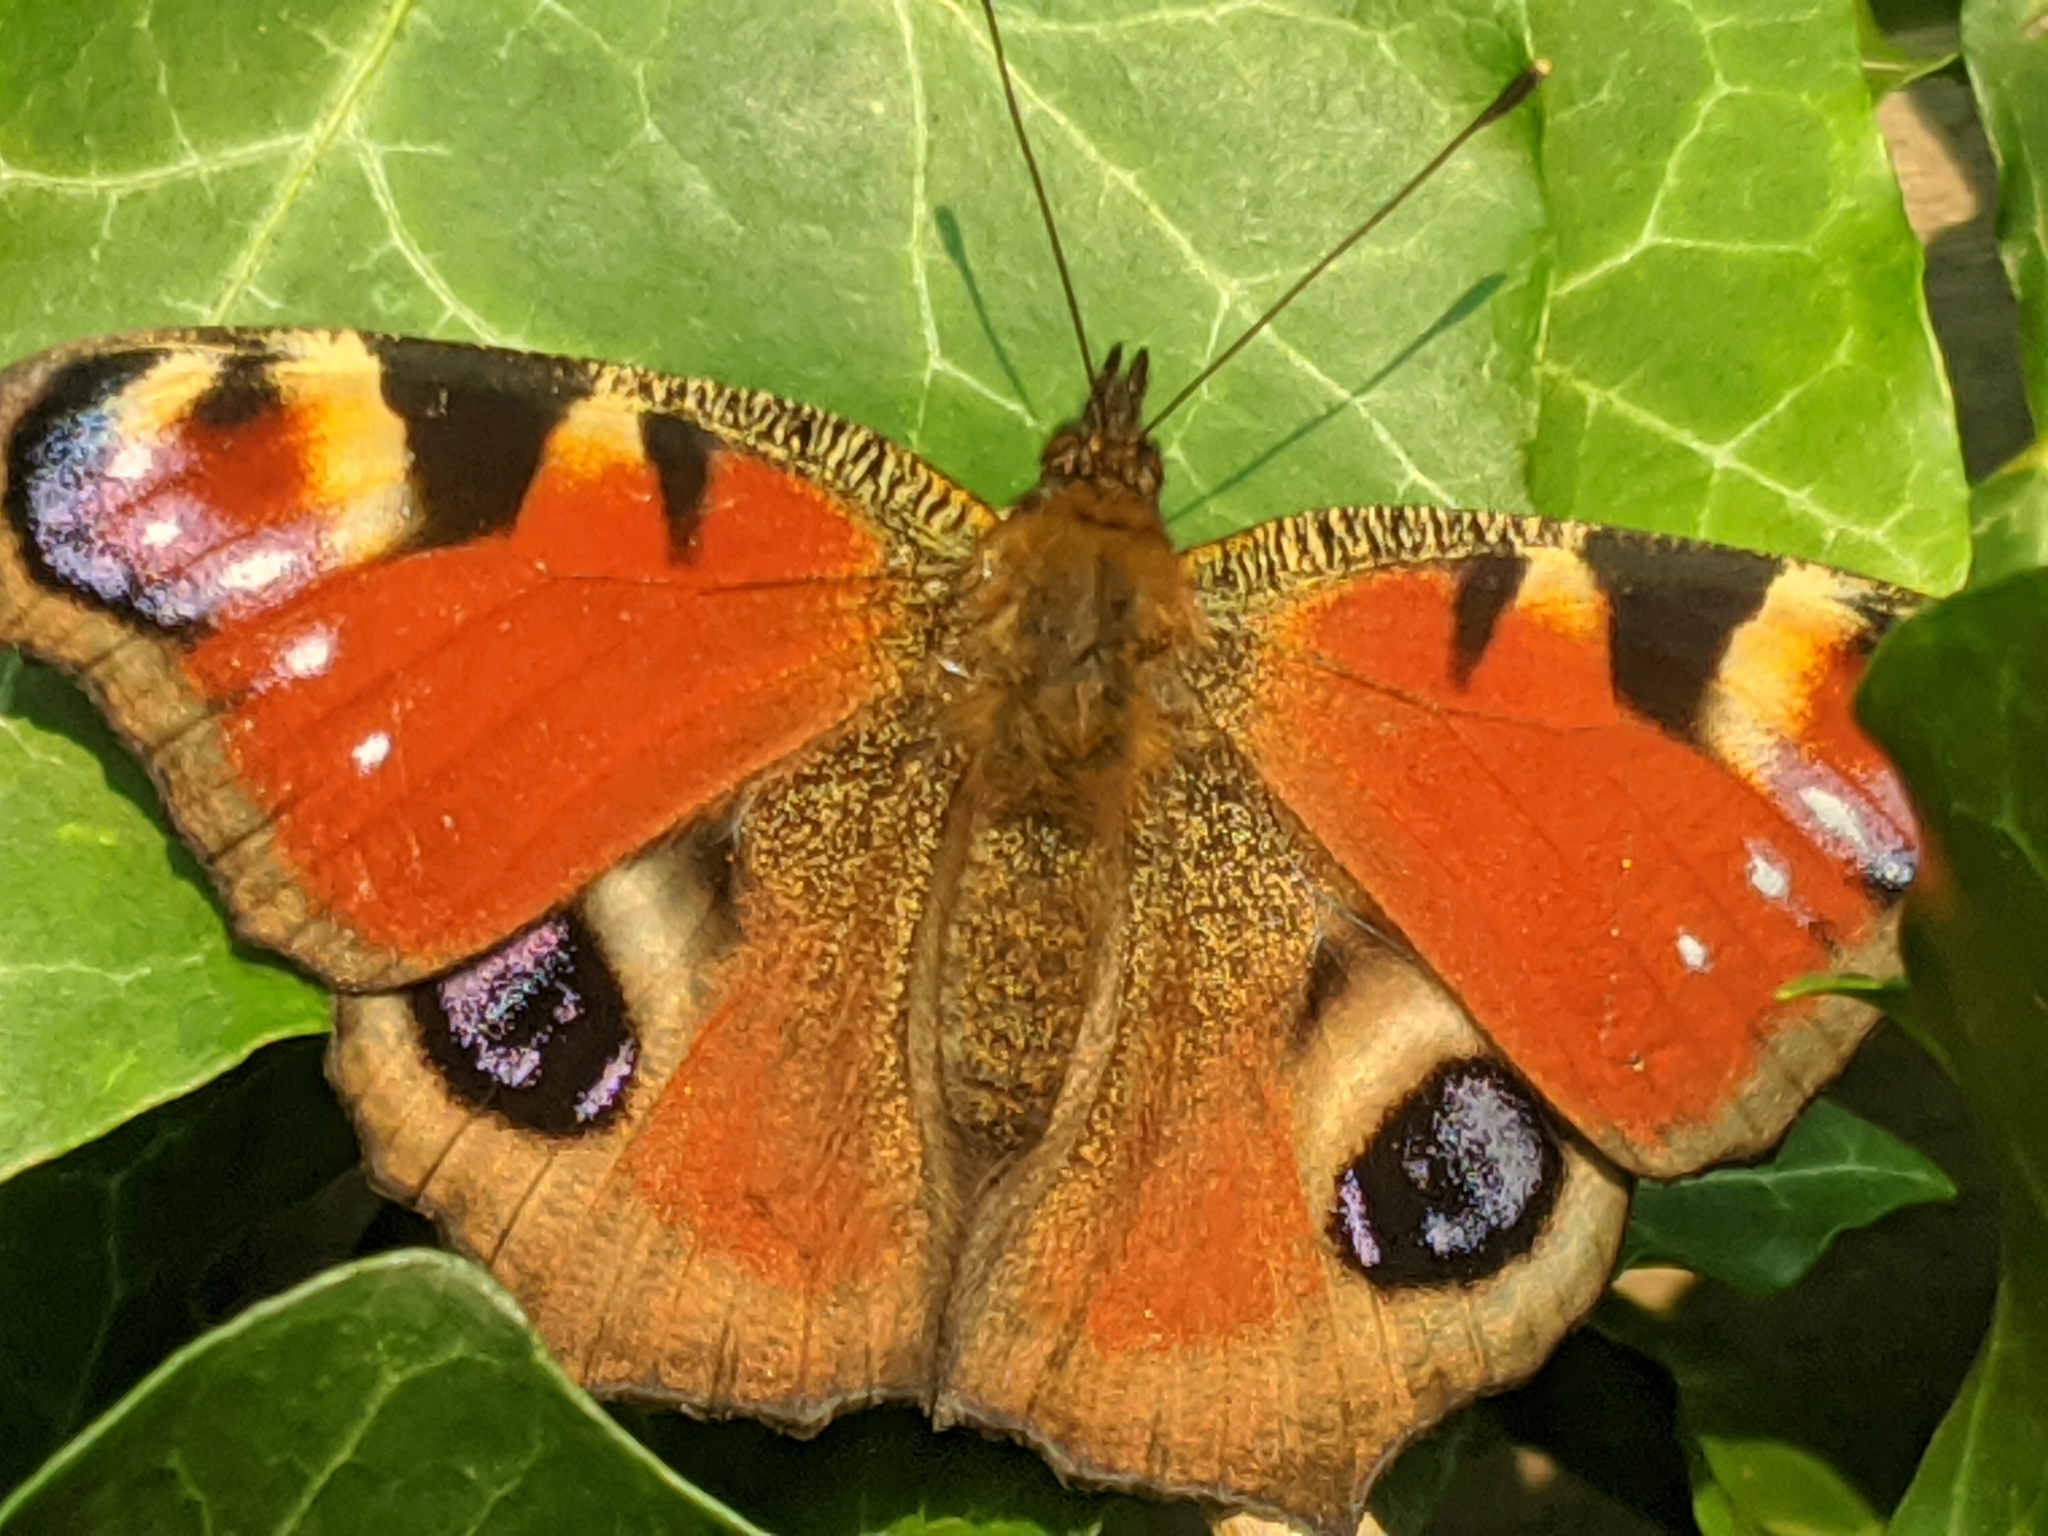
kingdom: Animalia
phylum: Arthropoda
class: Insecta
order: Lepidoptera
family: Nymphalidae
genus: Aglais
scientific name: Aglais io
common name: Peacock
